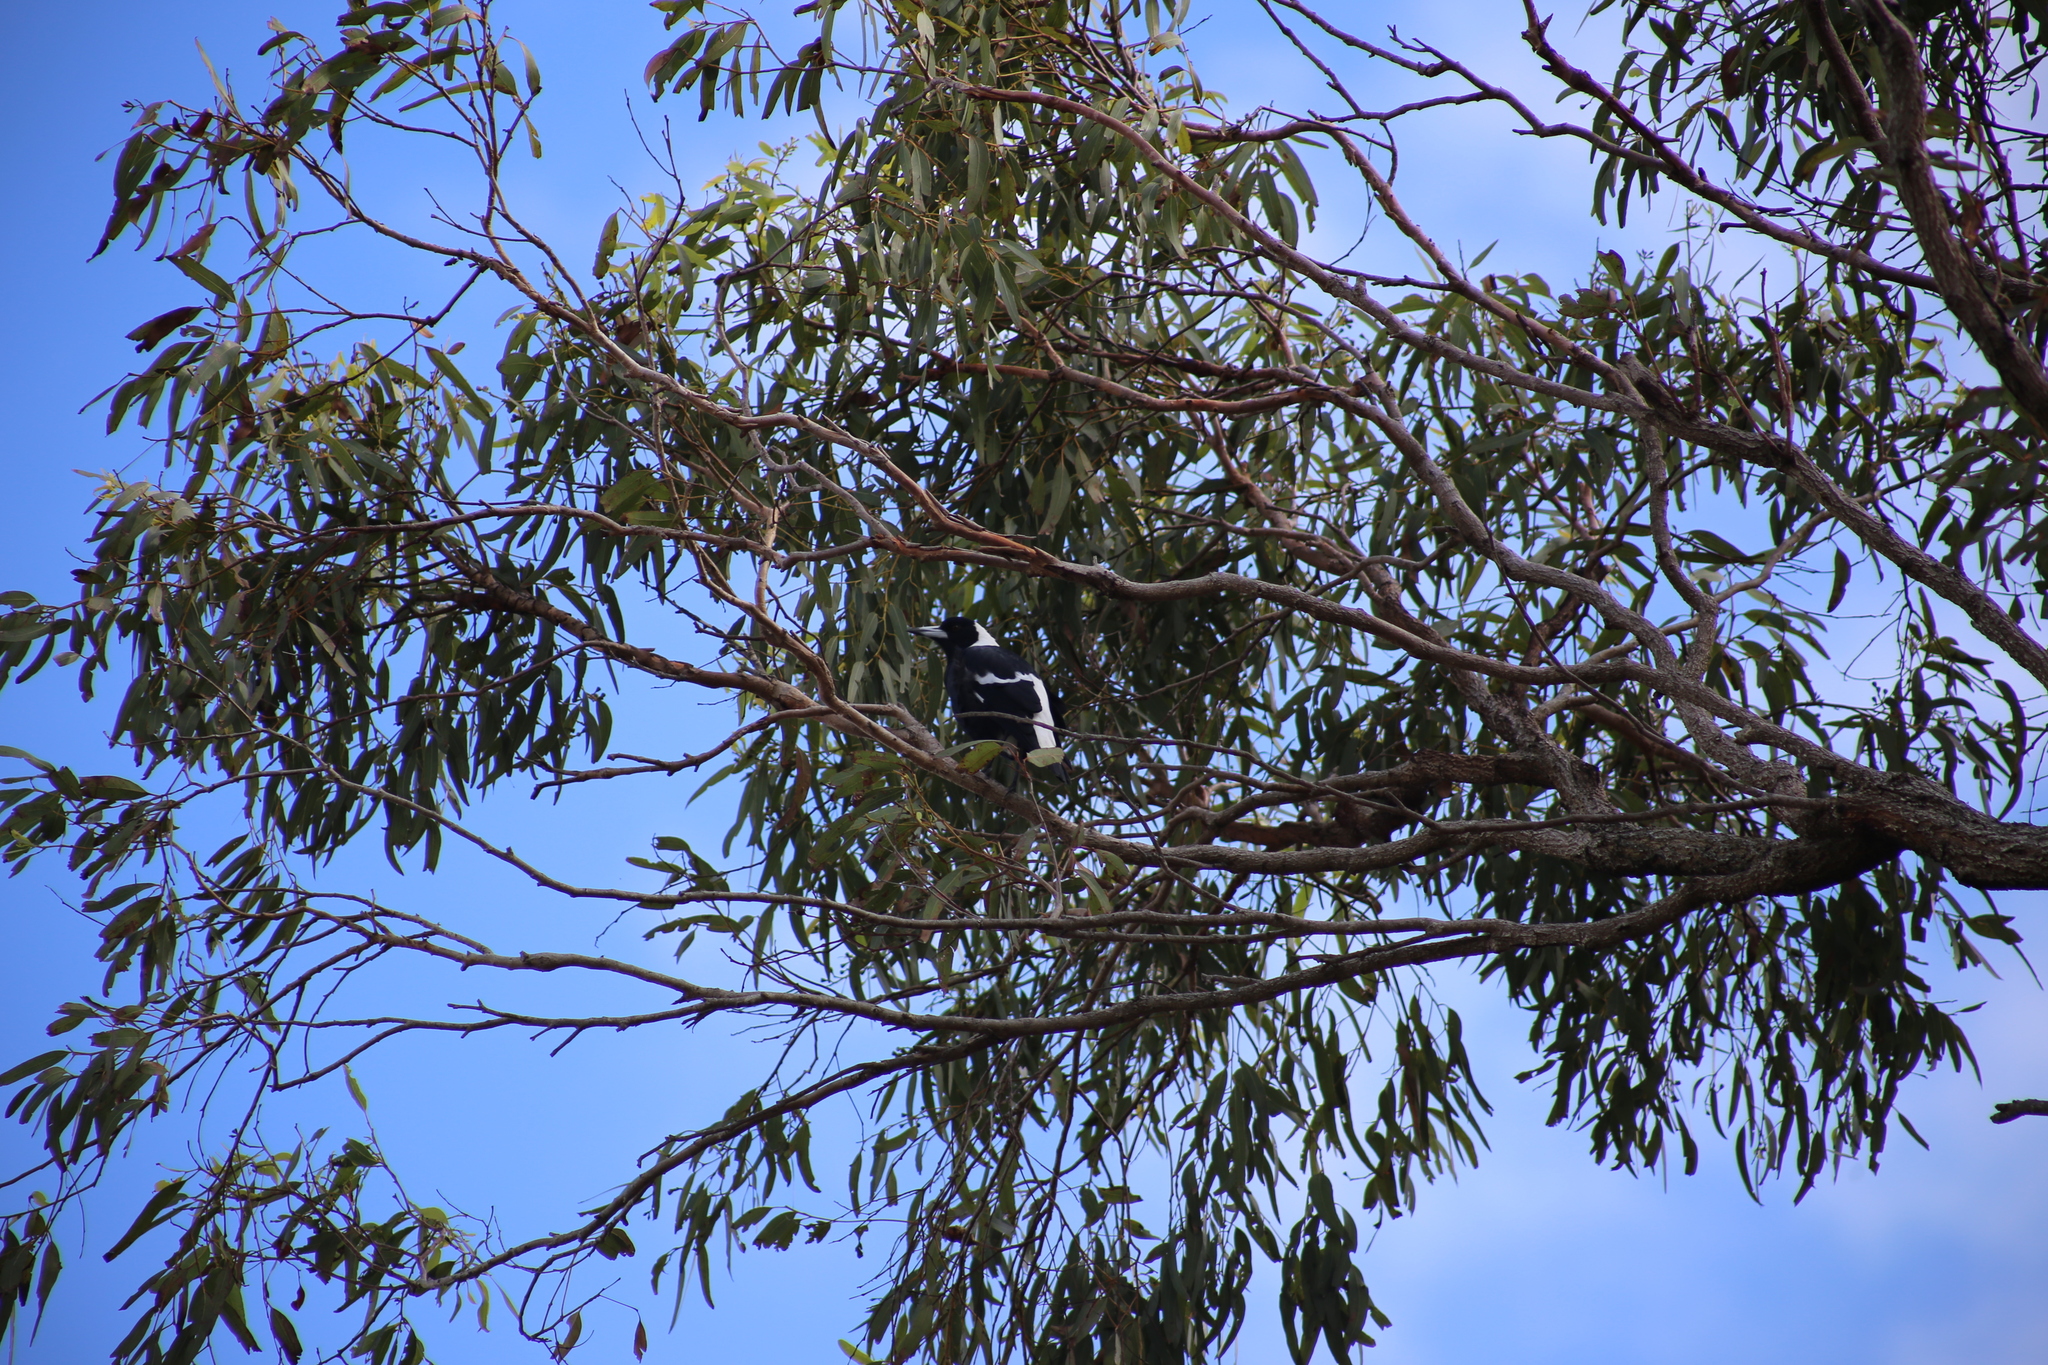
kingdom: Animalia
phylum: Chordata
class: Aves
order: Passeriformes
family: Cracticidae
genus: Gymnorhina
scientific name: Gymnorhina tibicen
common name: Australian magpie
